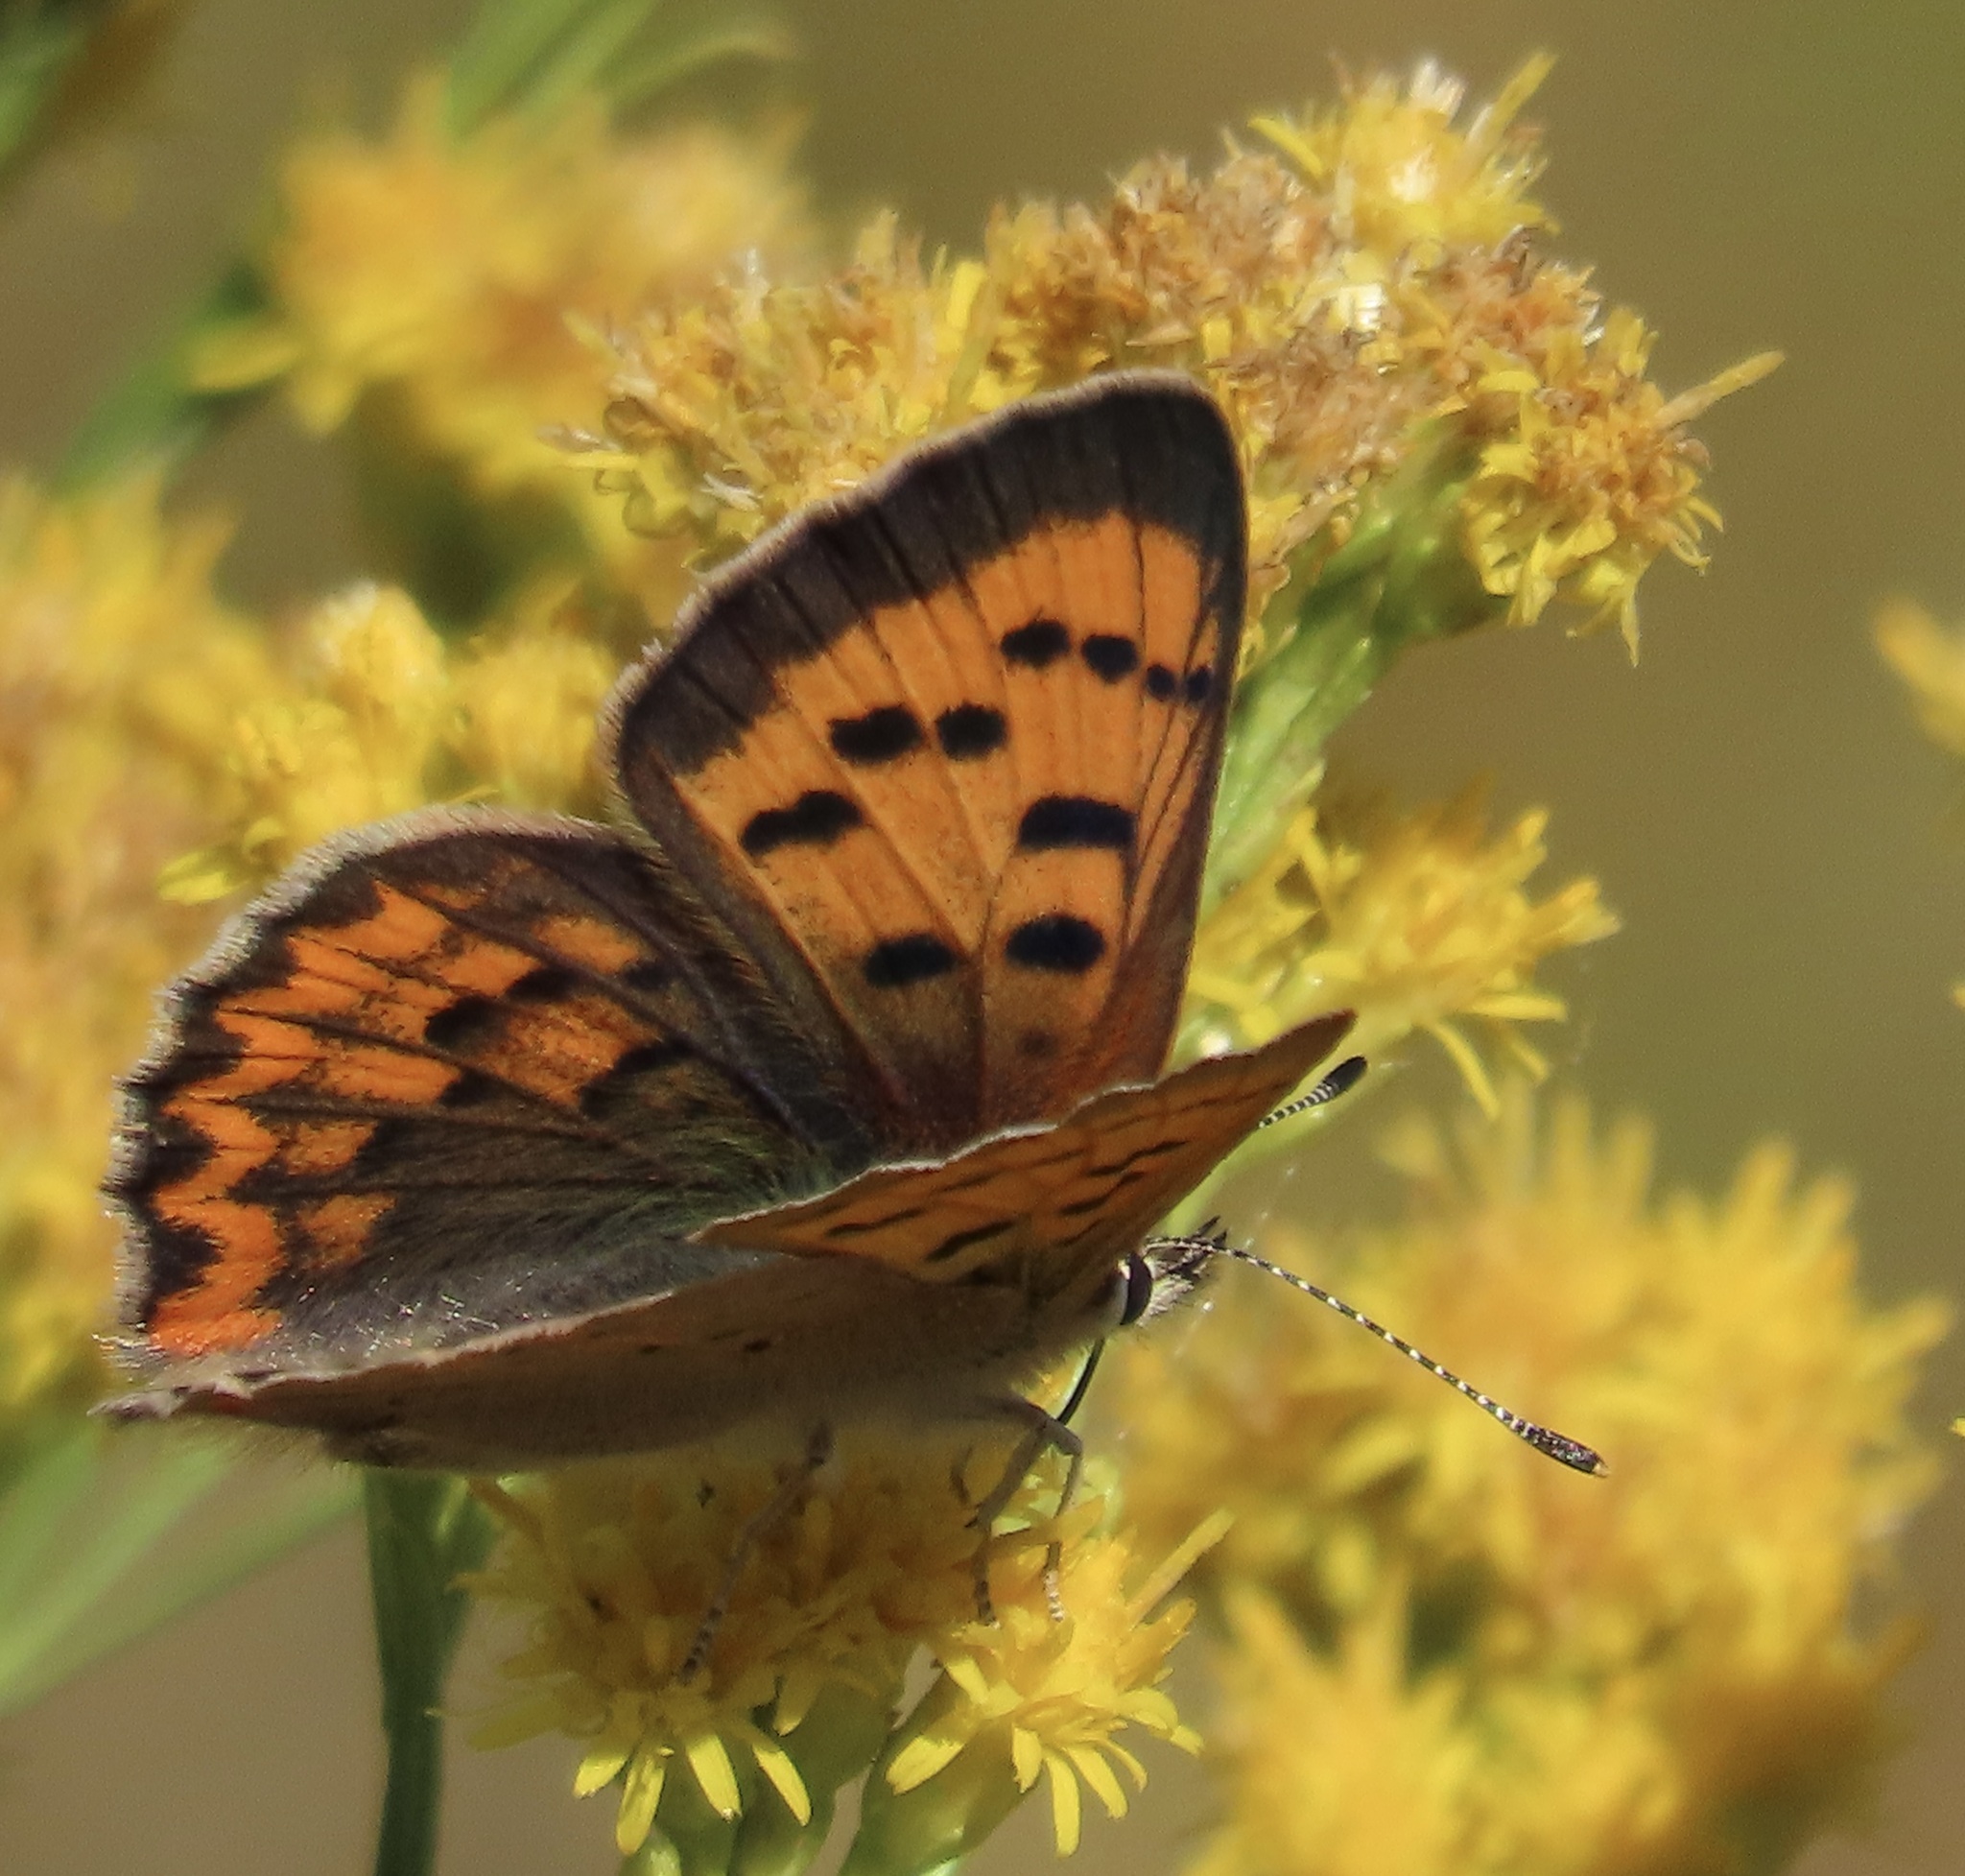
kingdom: Animalia
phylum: Arthropoda
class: Insecta
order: Lepidoptera
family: Lycaenidae
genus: Tharsalea
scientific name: Tharsalea helloides
